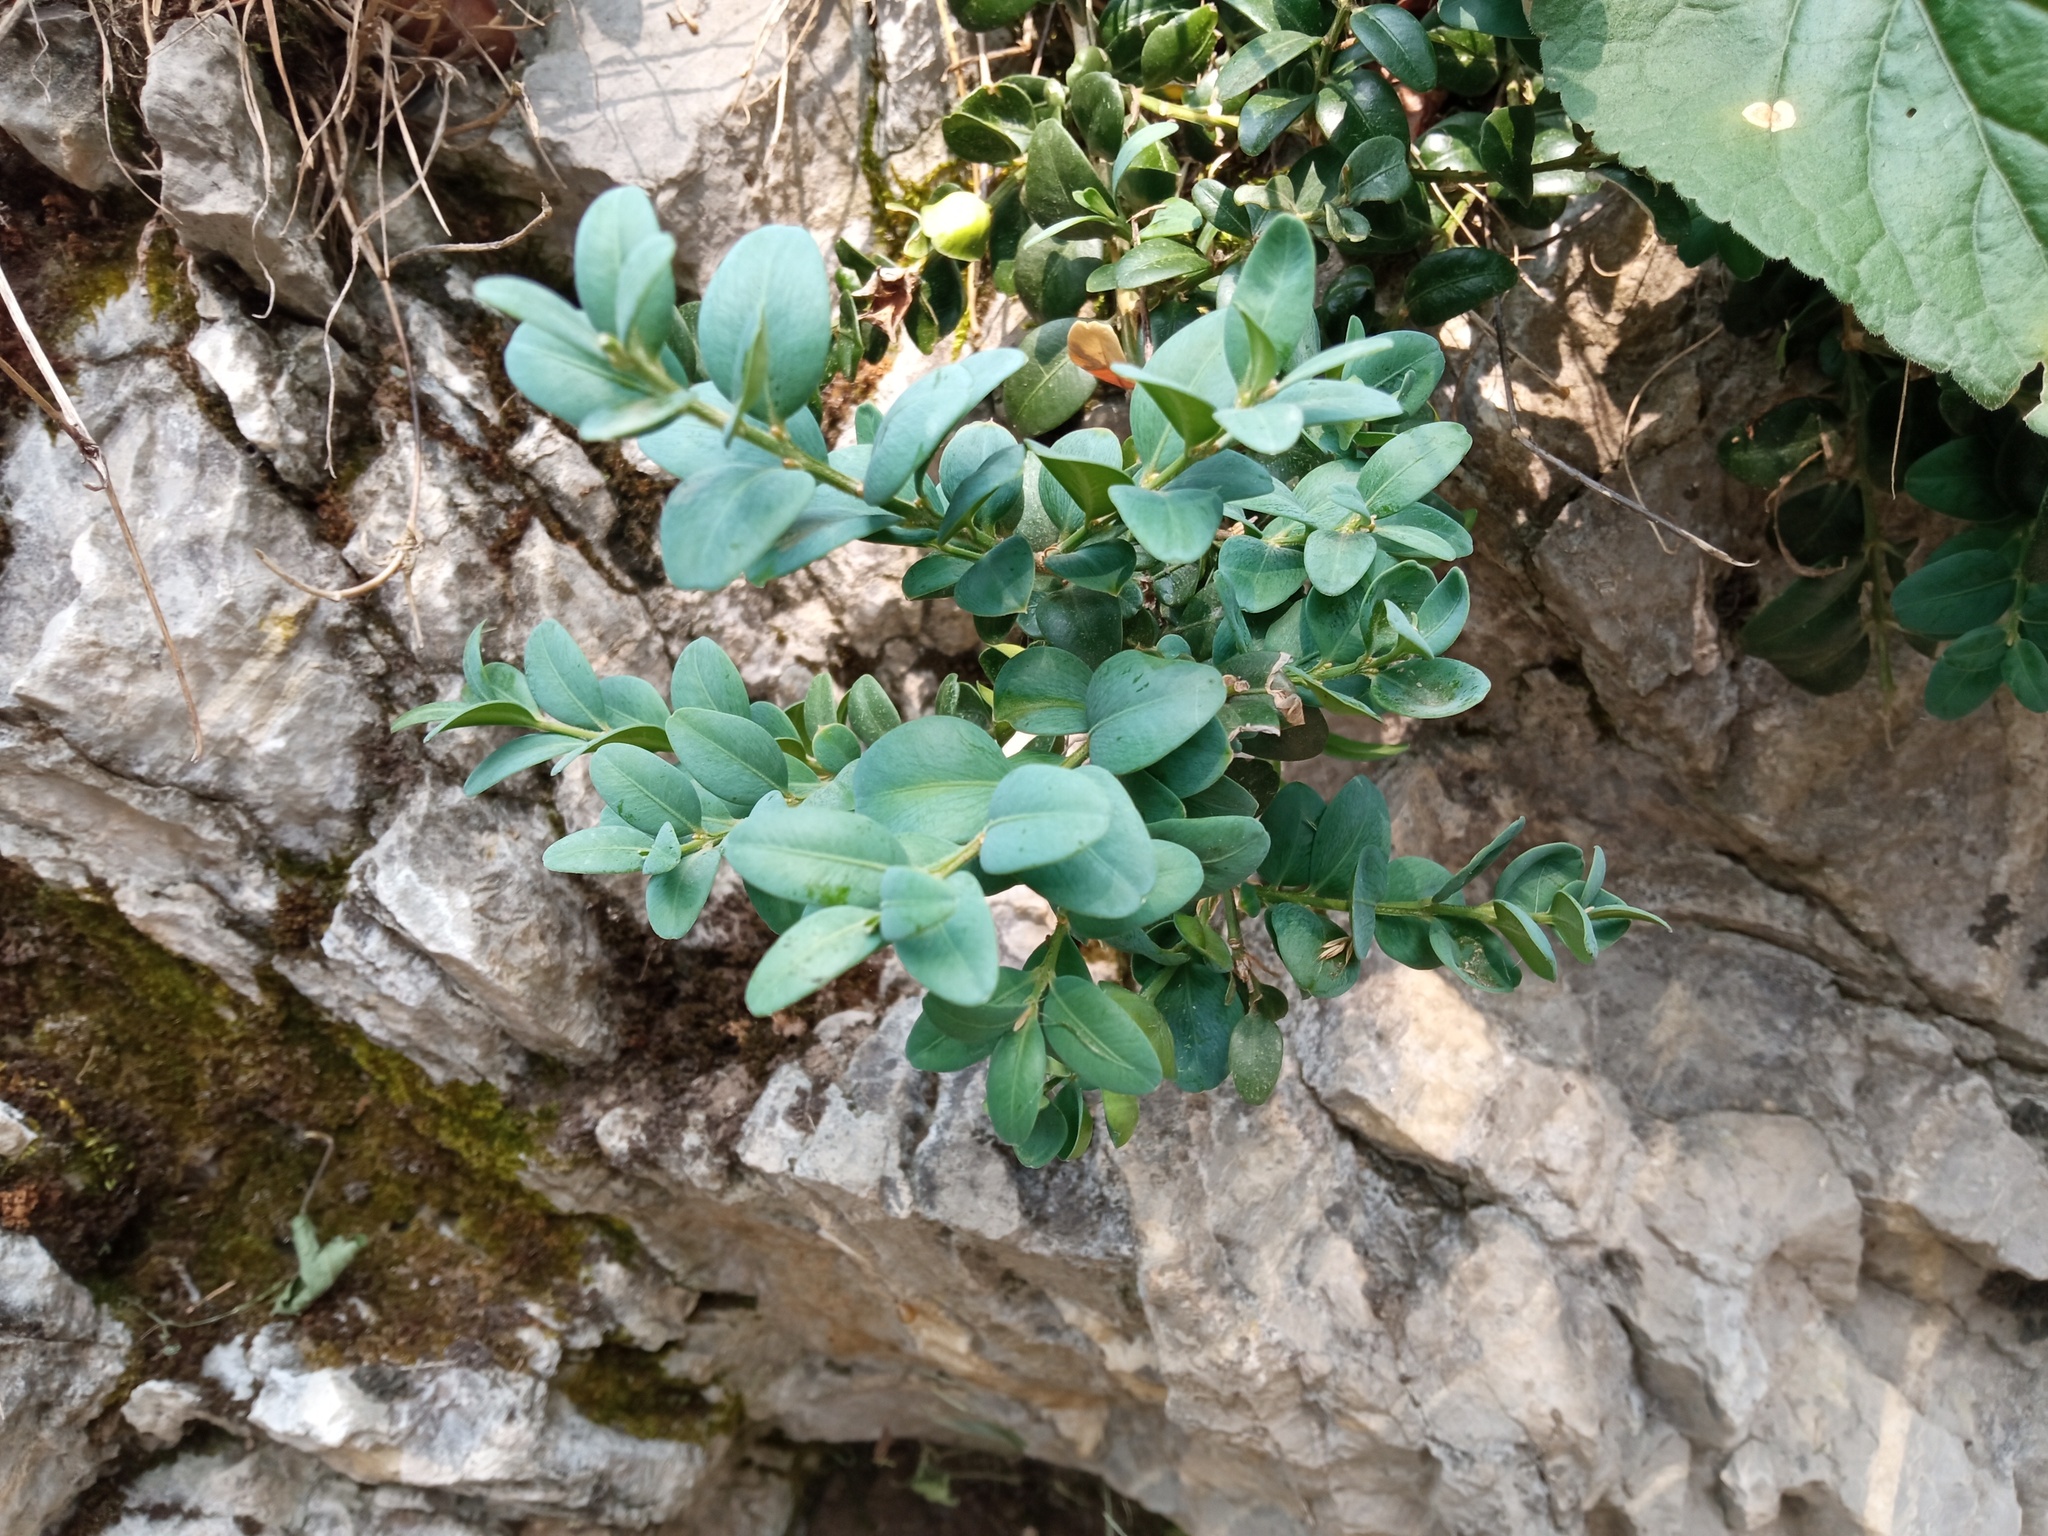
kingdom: Plantae
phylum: Tracheophyta
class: Magnoliopsida
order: Buxales
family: Buxaceae
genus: Buxus
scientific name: Buxus sempervirens
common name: Box
